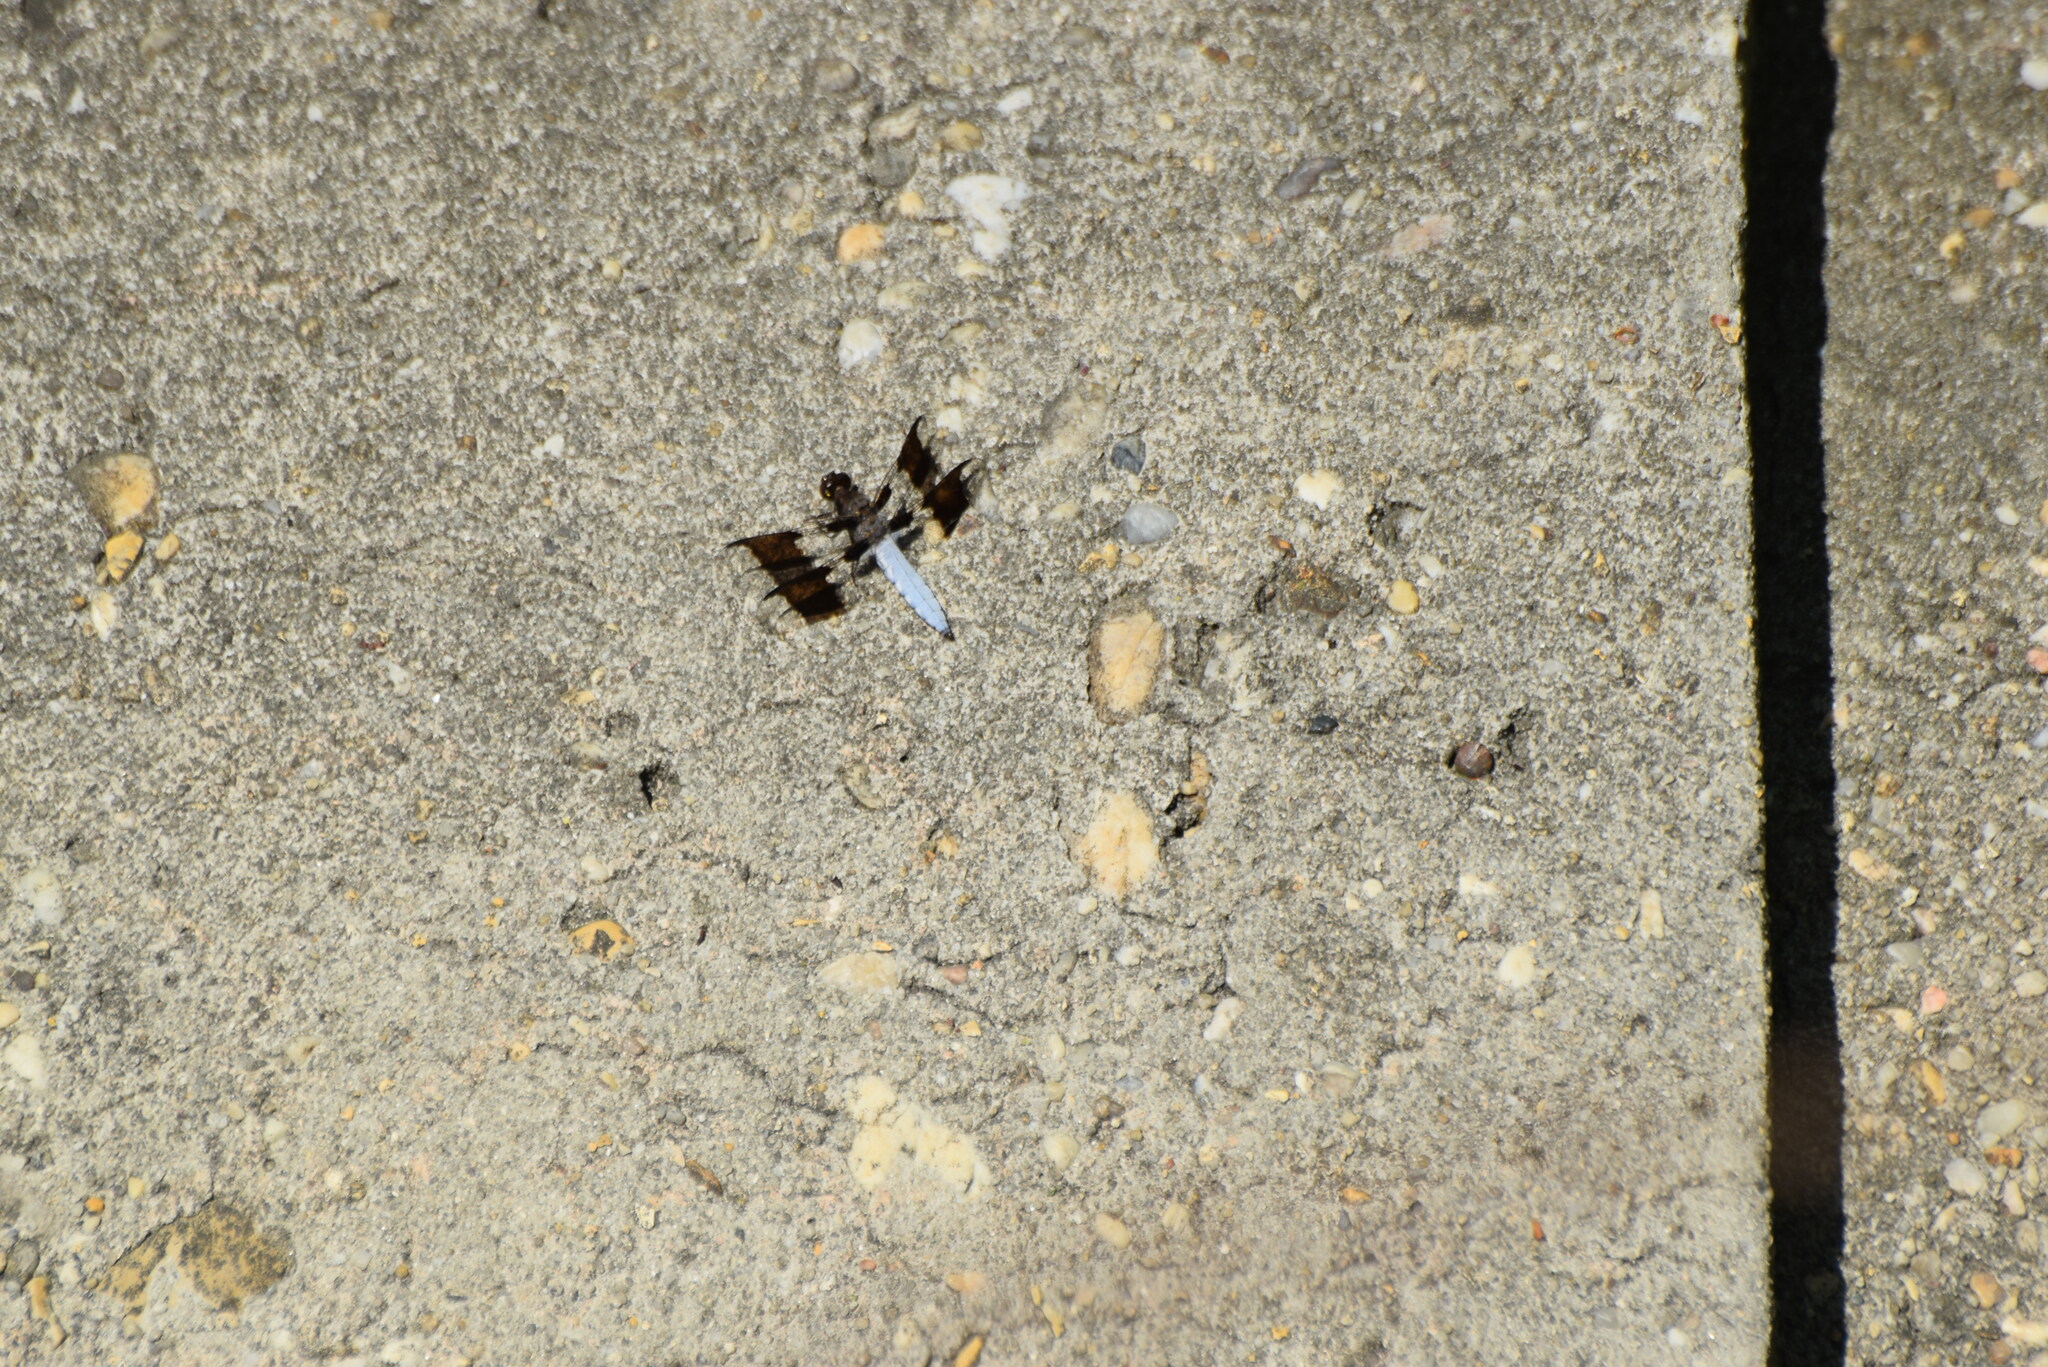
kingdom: Animalia
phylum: Arthropoda
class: Insecta
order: Odonata
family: Libellulidae
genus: Plathemis
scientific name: Plathemis lydia
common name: Common whitetail
